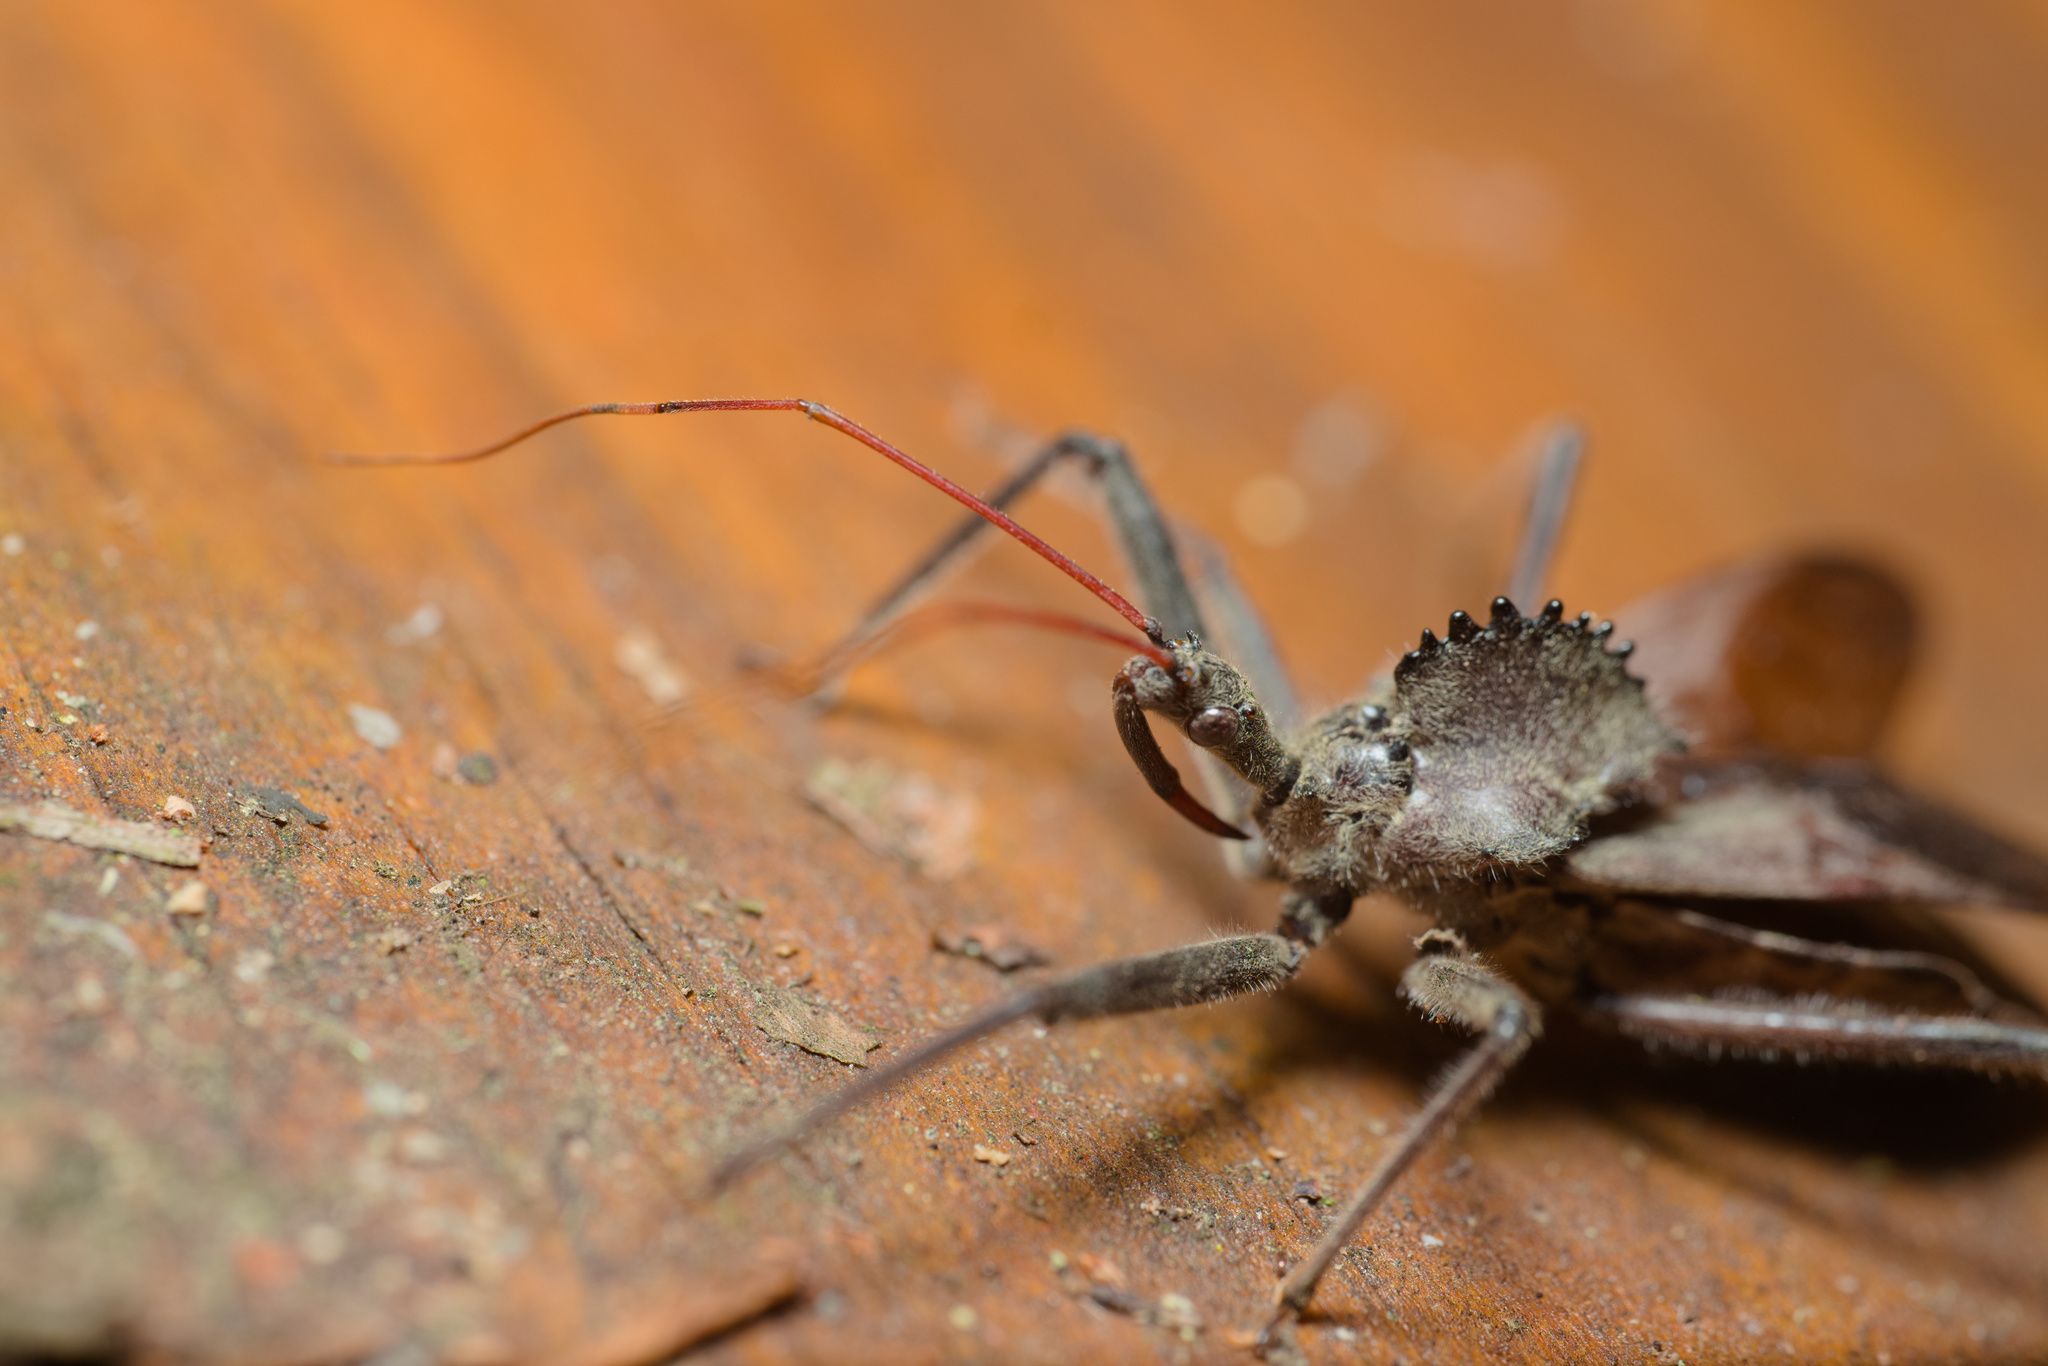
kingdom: Animalia
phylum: Arthropoda
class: Insecta
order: Hemiptera
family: Reduviidae
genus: Arilus
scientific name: Arilus cristatus
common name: North american wheel bug
